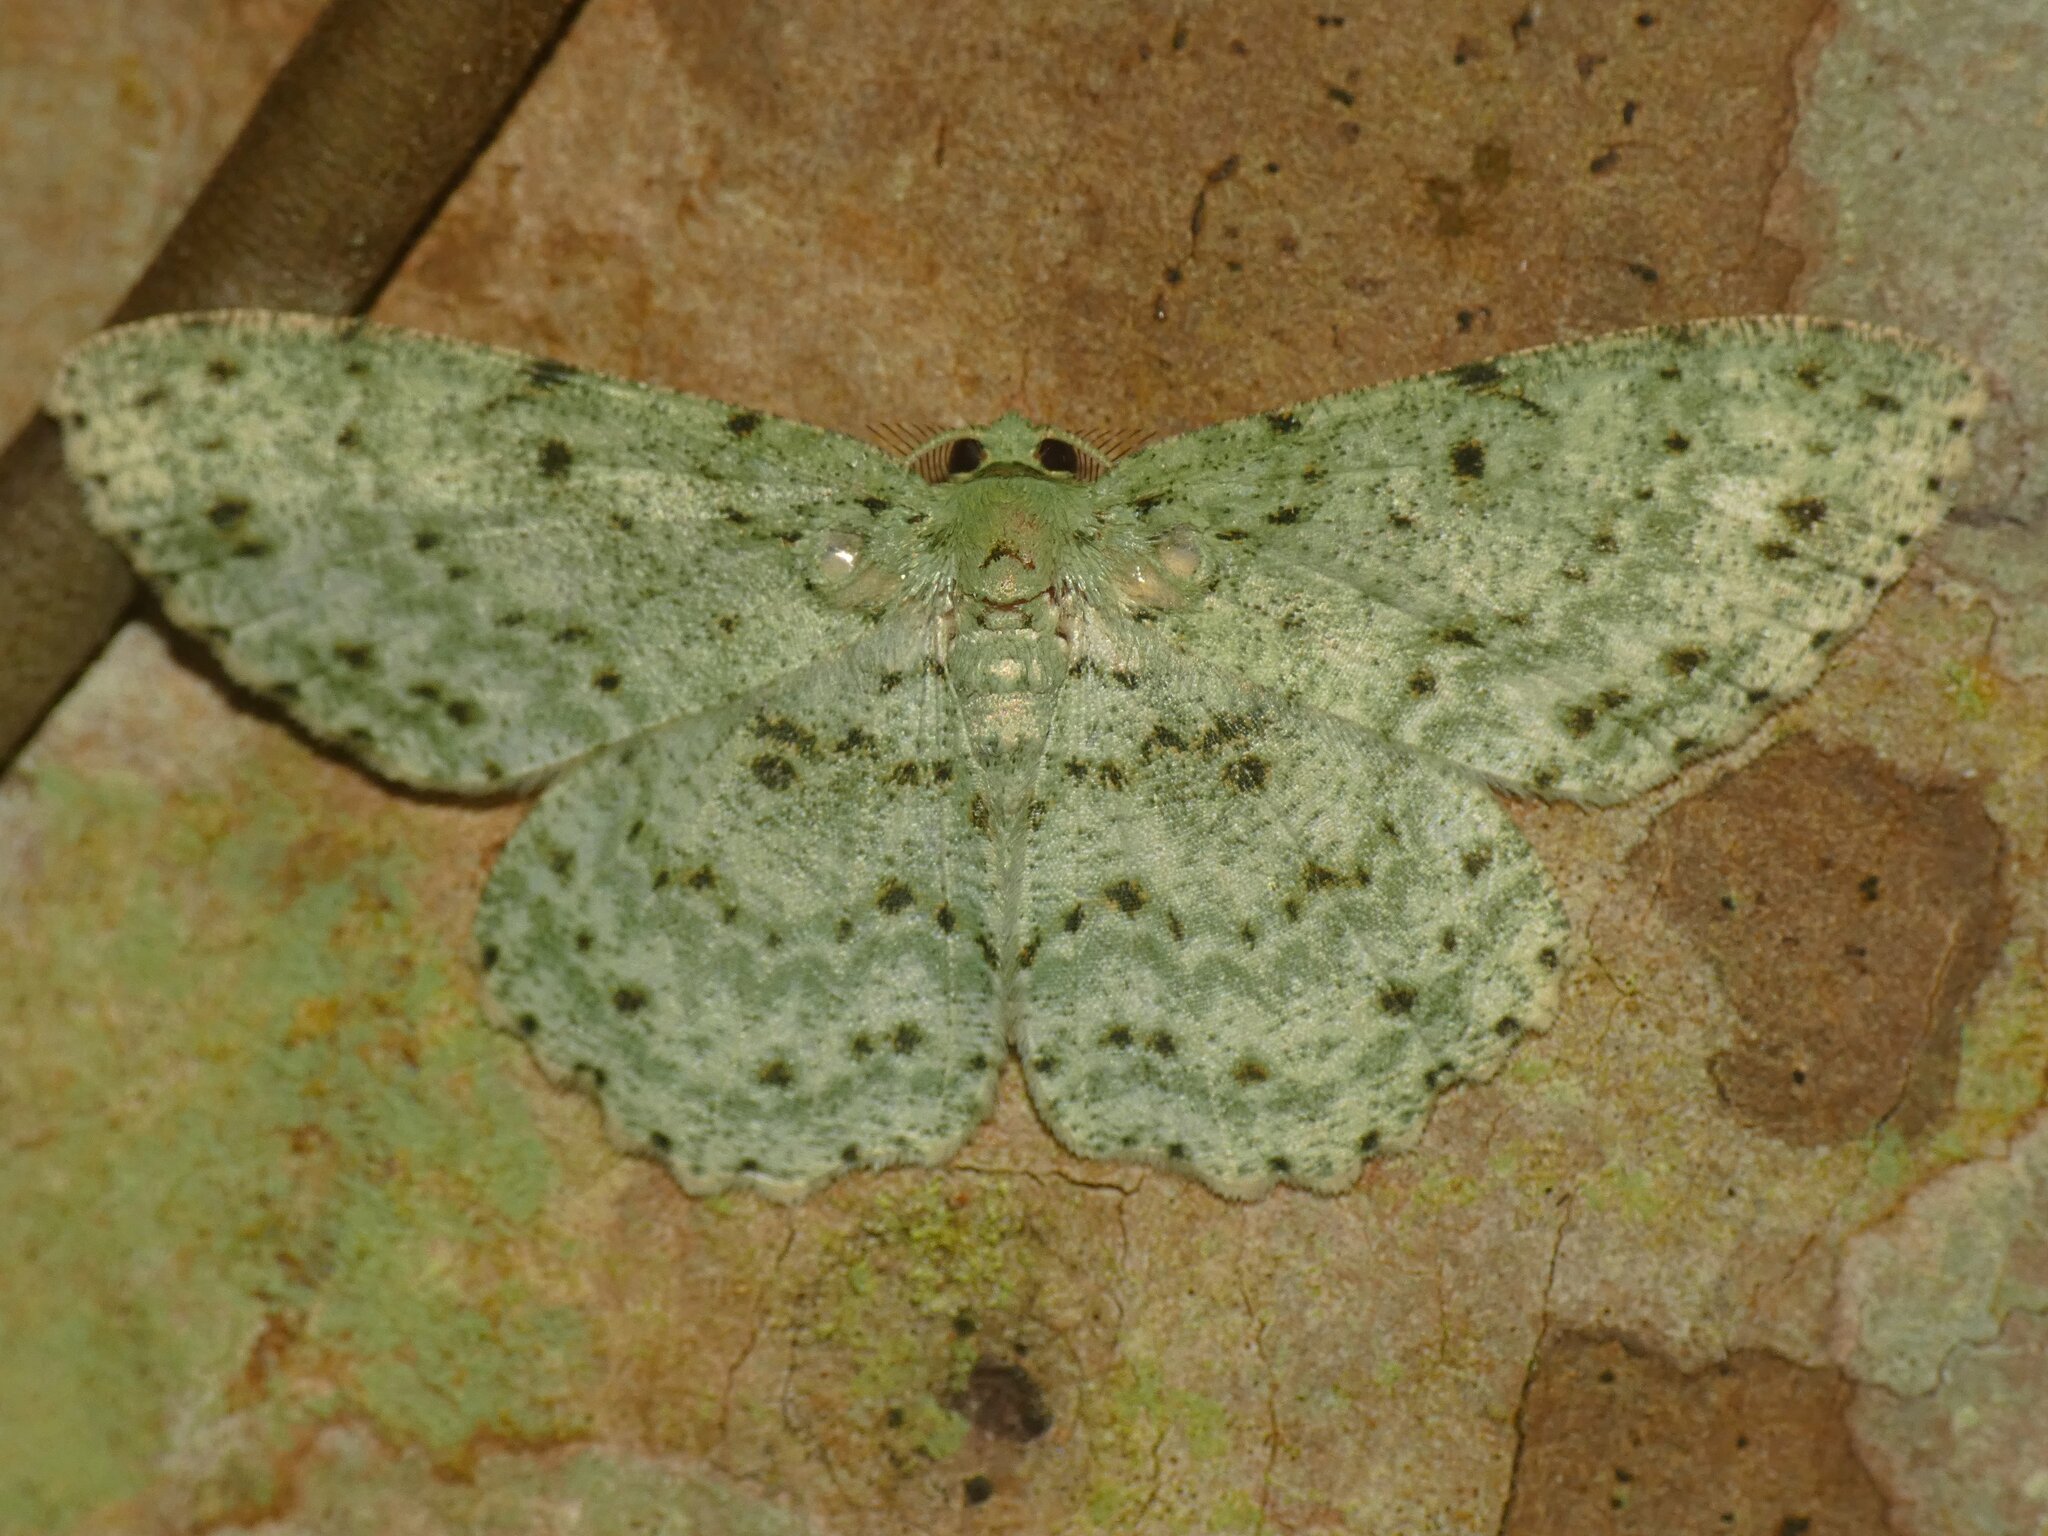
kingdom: Animalia
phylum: Arthropoda
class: Insecta
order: Lepidoptera
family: Geometridae
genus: Catoria
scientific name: Catoria delectaria
